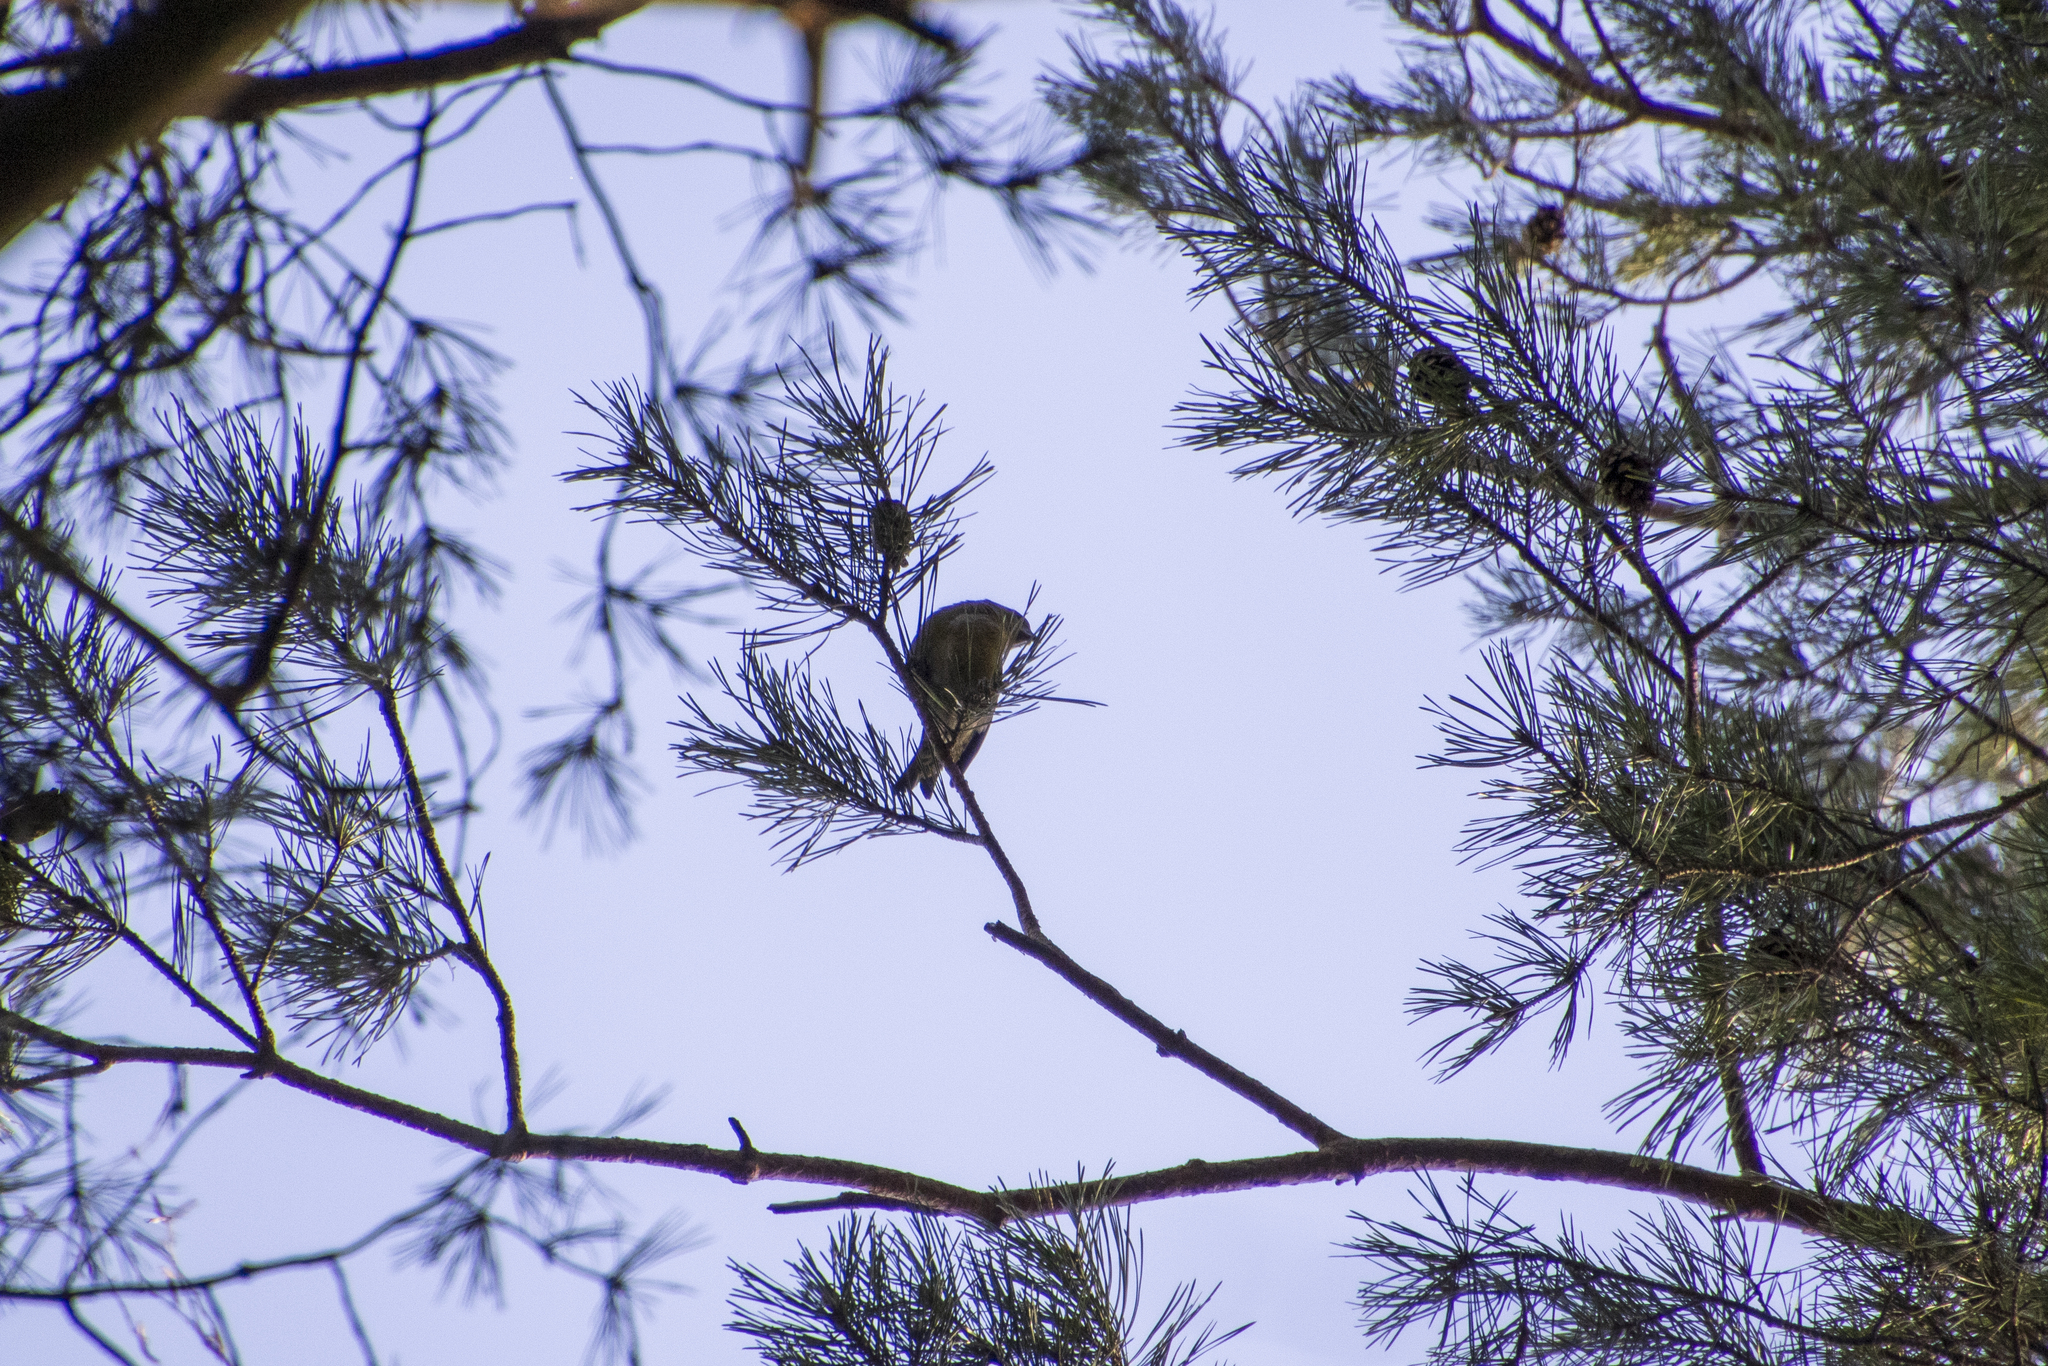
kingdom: Animalia
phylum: Chordata
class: Aves
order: Passeriformes
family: Fringillidae
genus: Loxia
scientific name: Loxia curvirostra
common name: Red crossbill
